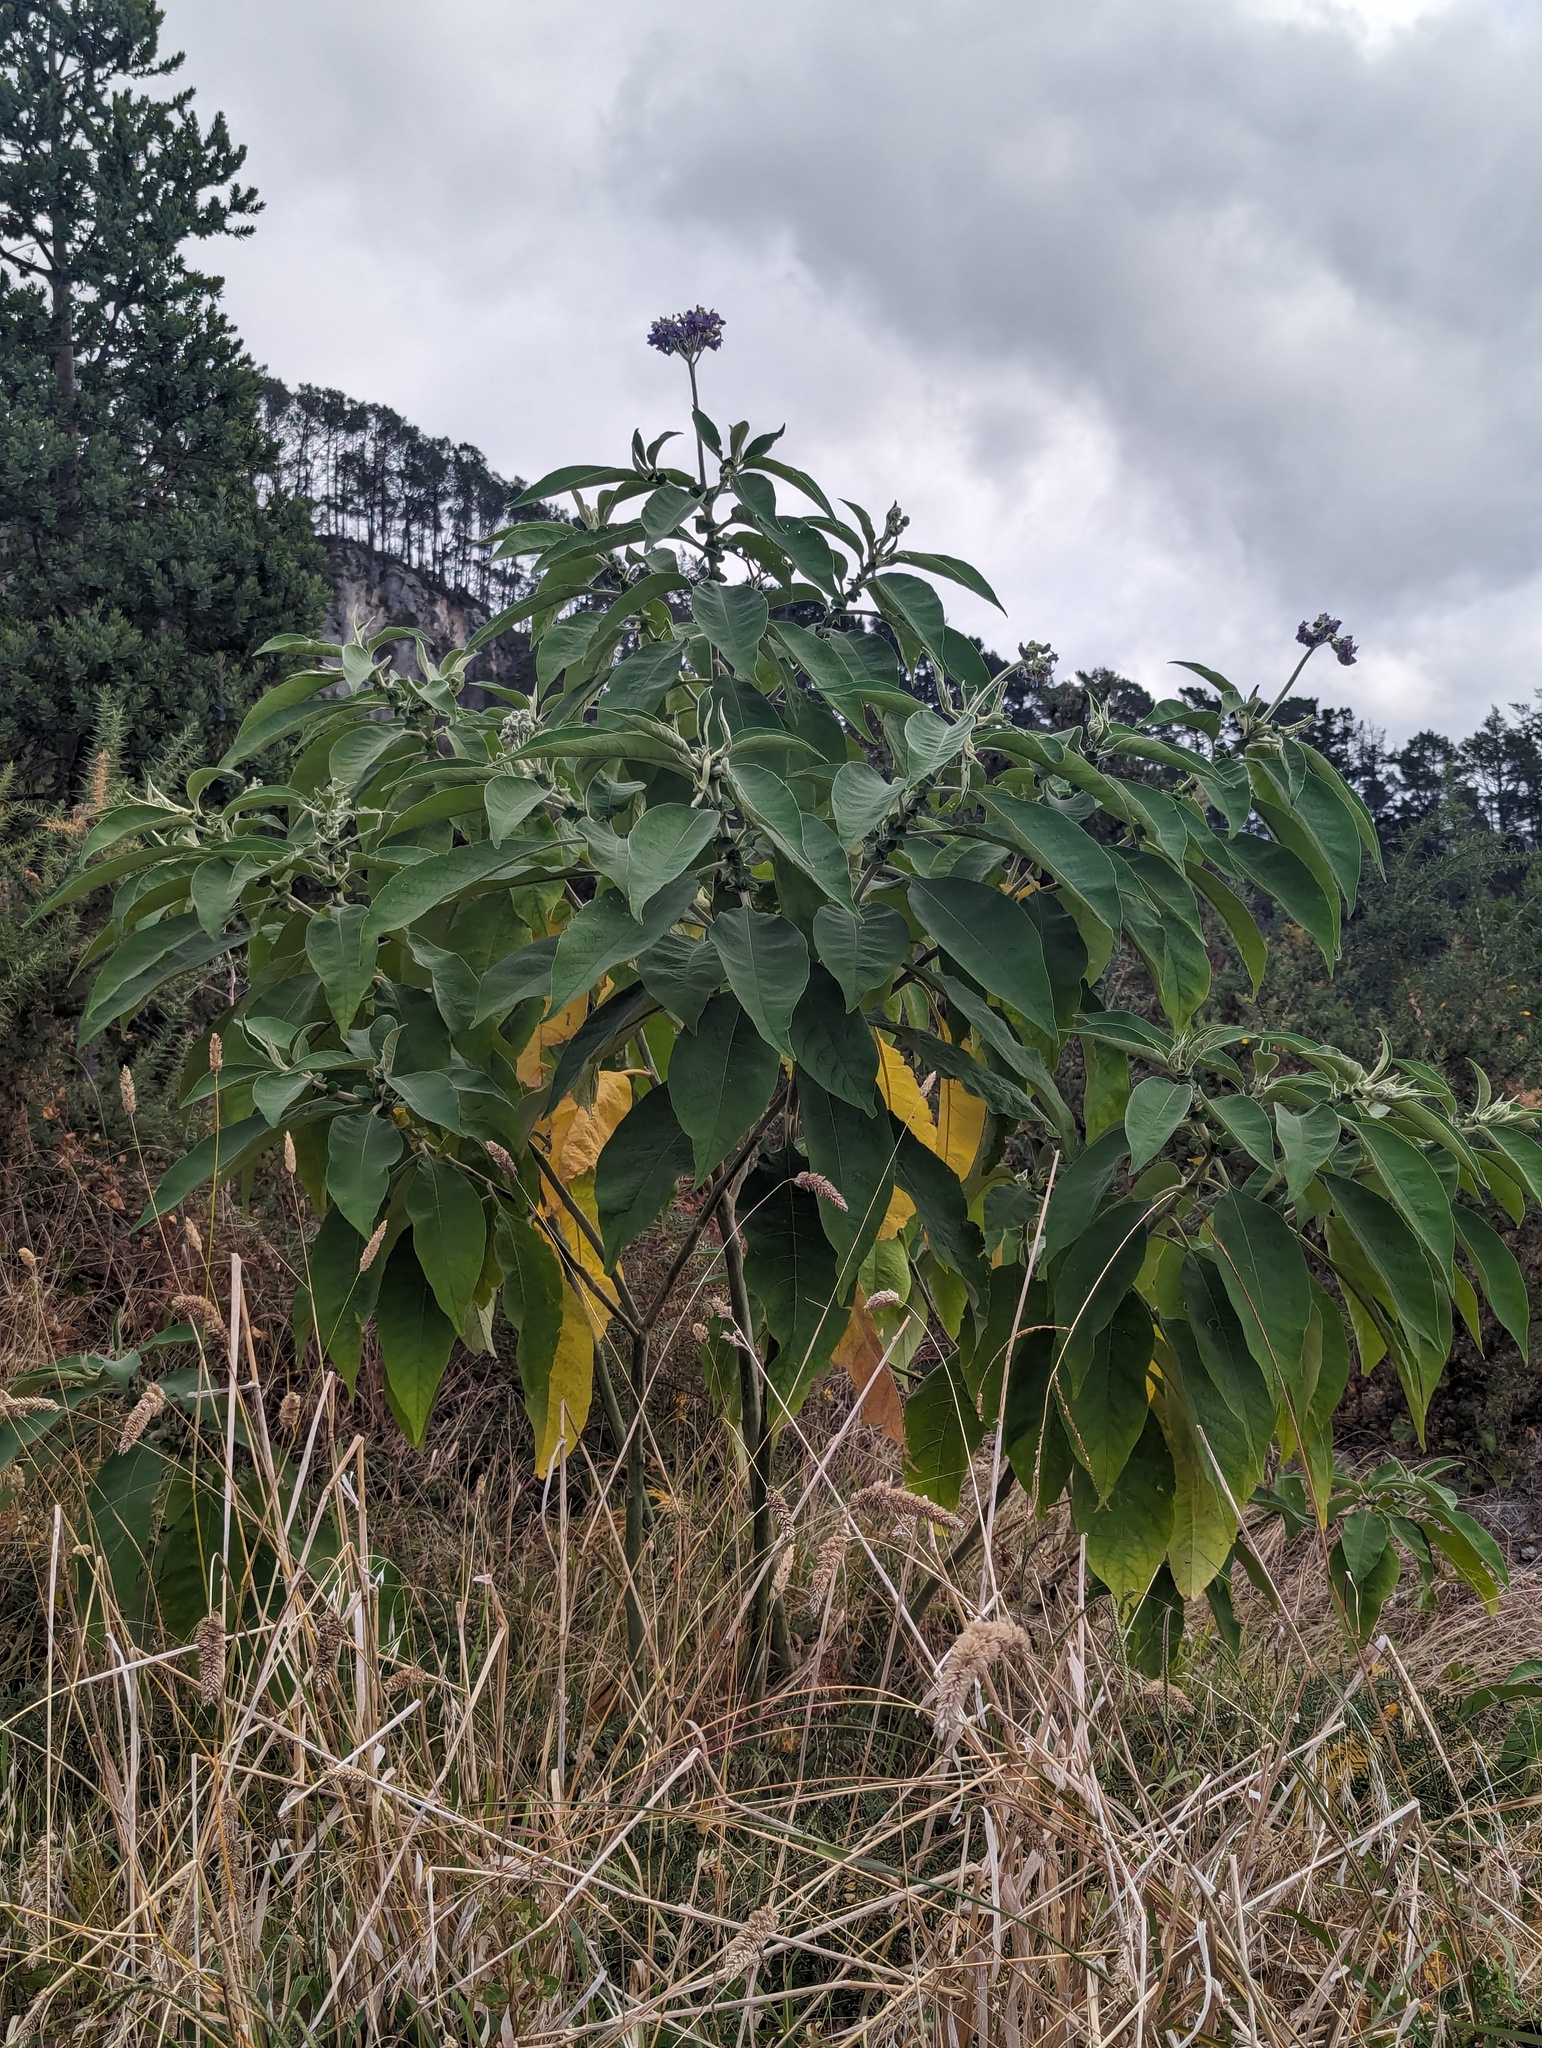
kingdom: Plantae
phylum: Tracheophyta
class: Magnoliopsida
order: Solanales
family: Solanaceae
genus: Solanum
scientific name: Solanum mauritianum
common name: Earleaf nightshade
